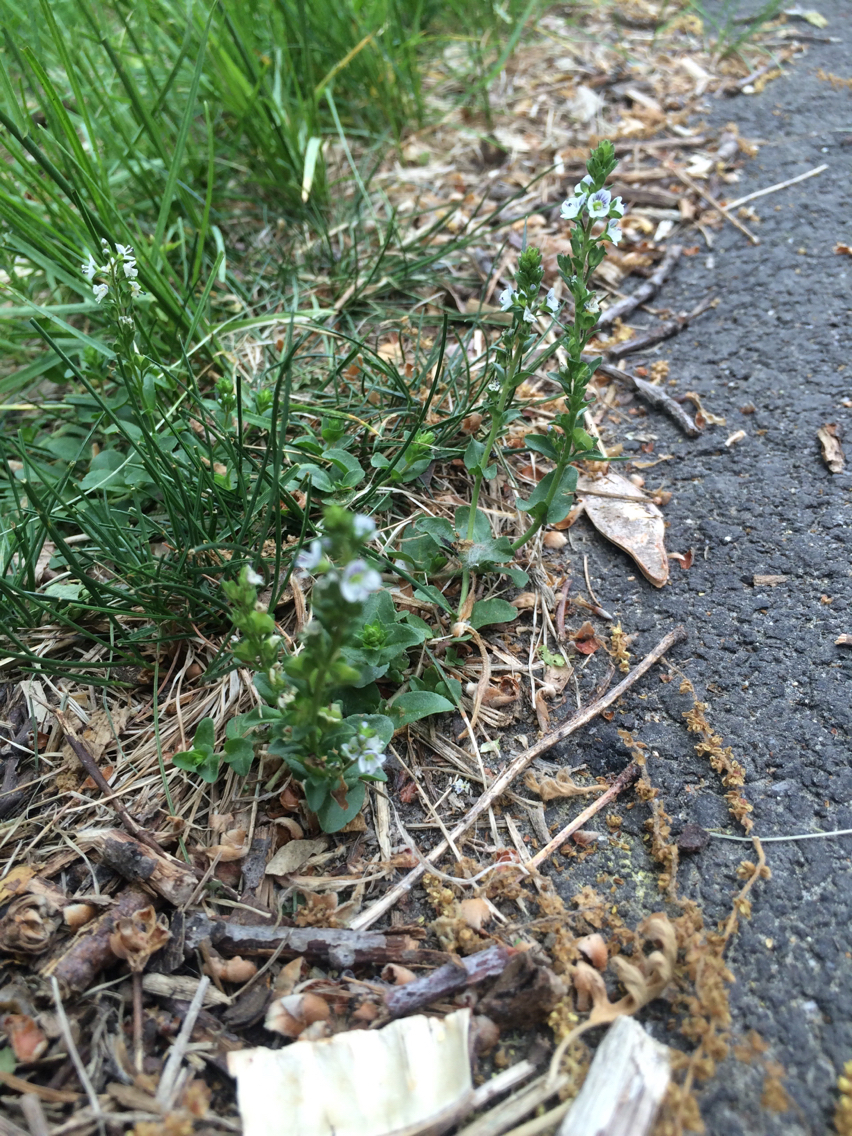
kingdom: Plantae
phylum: Tracheophyta
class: Magnoliopsida
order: Lamiales
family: Plantaginaceae
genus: Veronica
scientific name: Veronica serpyllifolia
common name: Thyme-leaved speedwell
